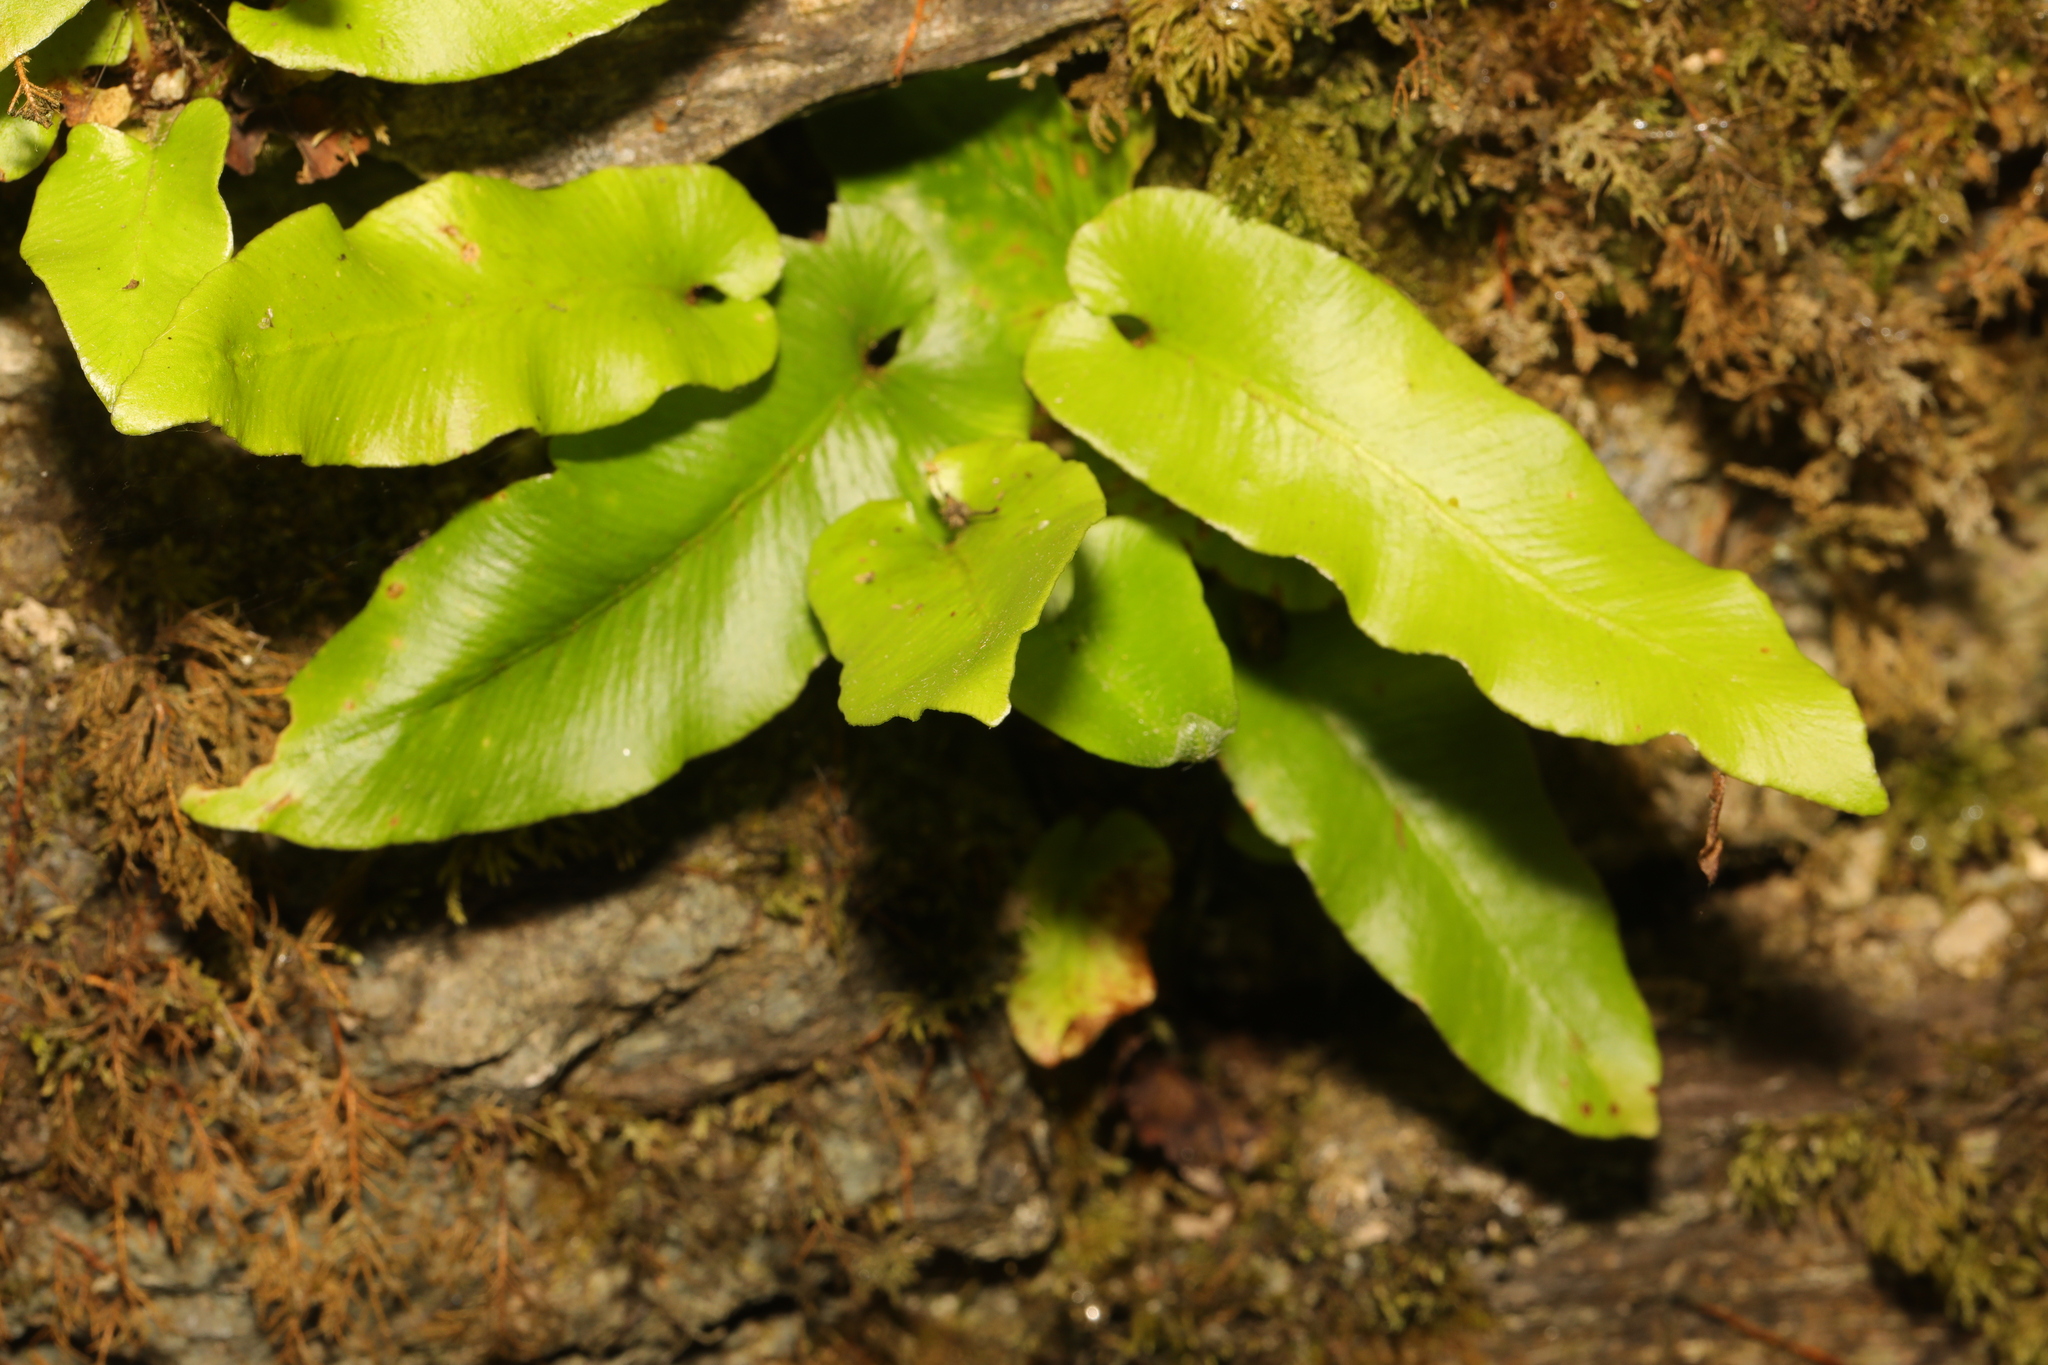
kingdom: Plantae
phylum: Tracheophyta
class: Polypodiopsida
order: Polypodiales
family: Aspleniaceae
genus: Asplenium
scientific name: Asplenium scolopendrium
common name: Hart's-tongue fern
